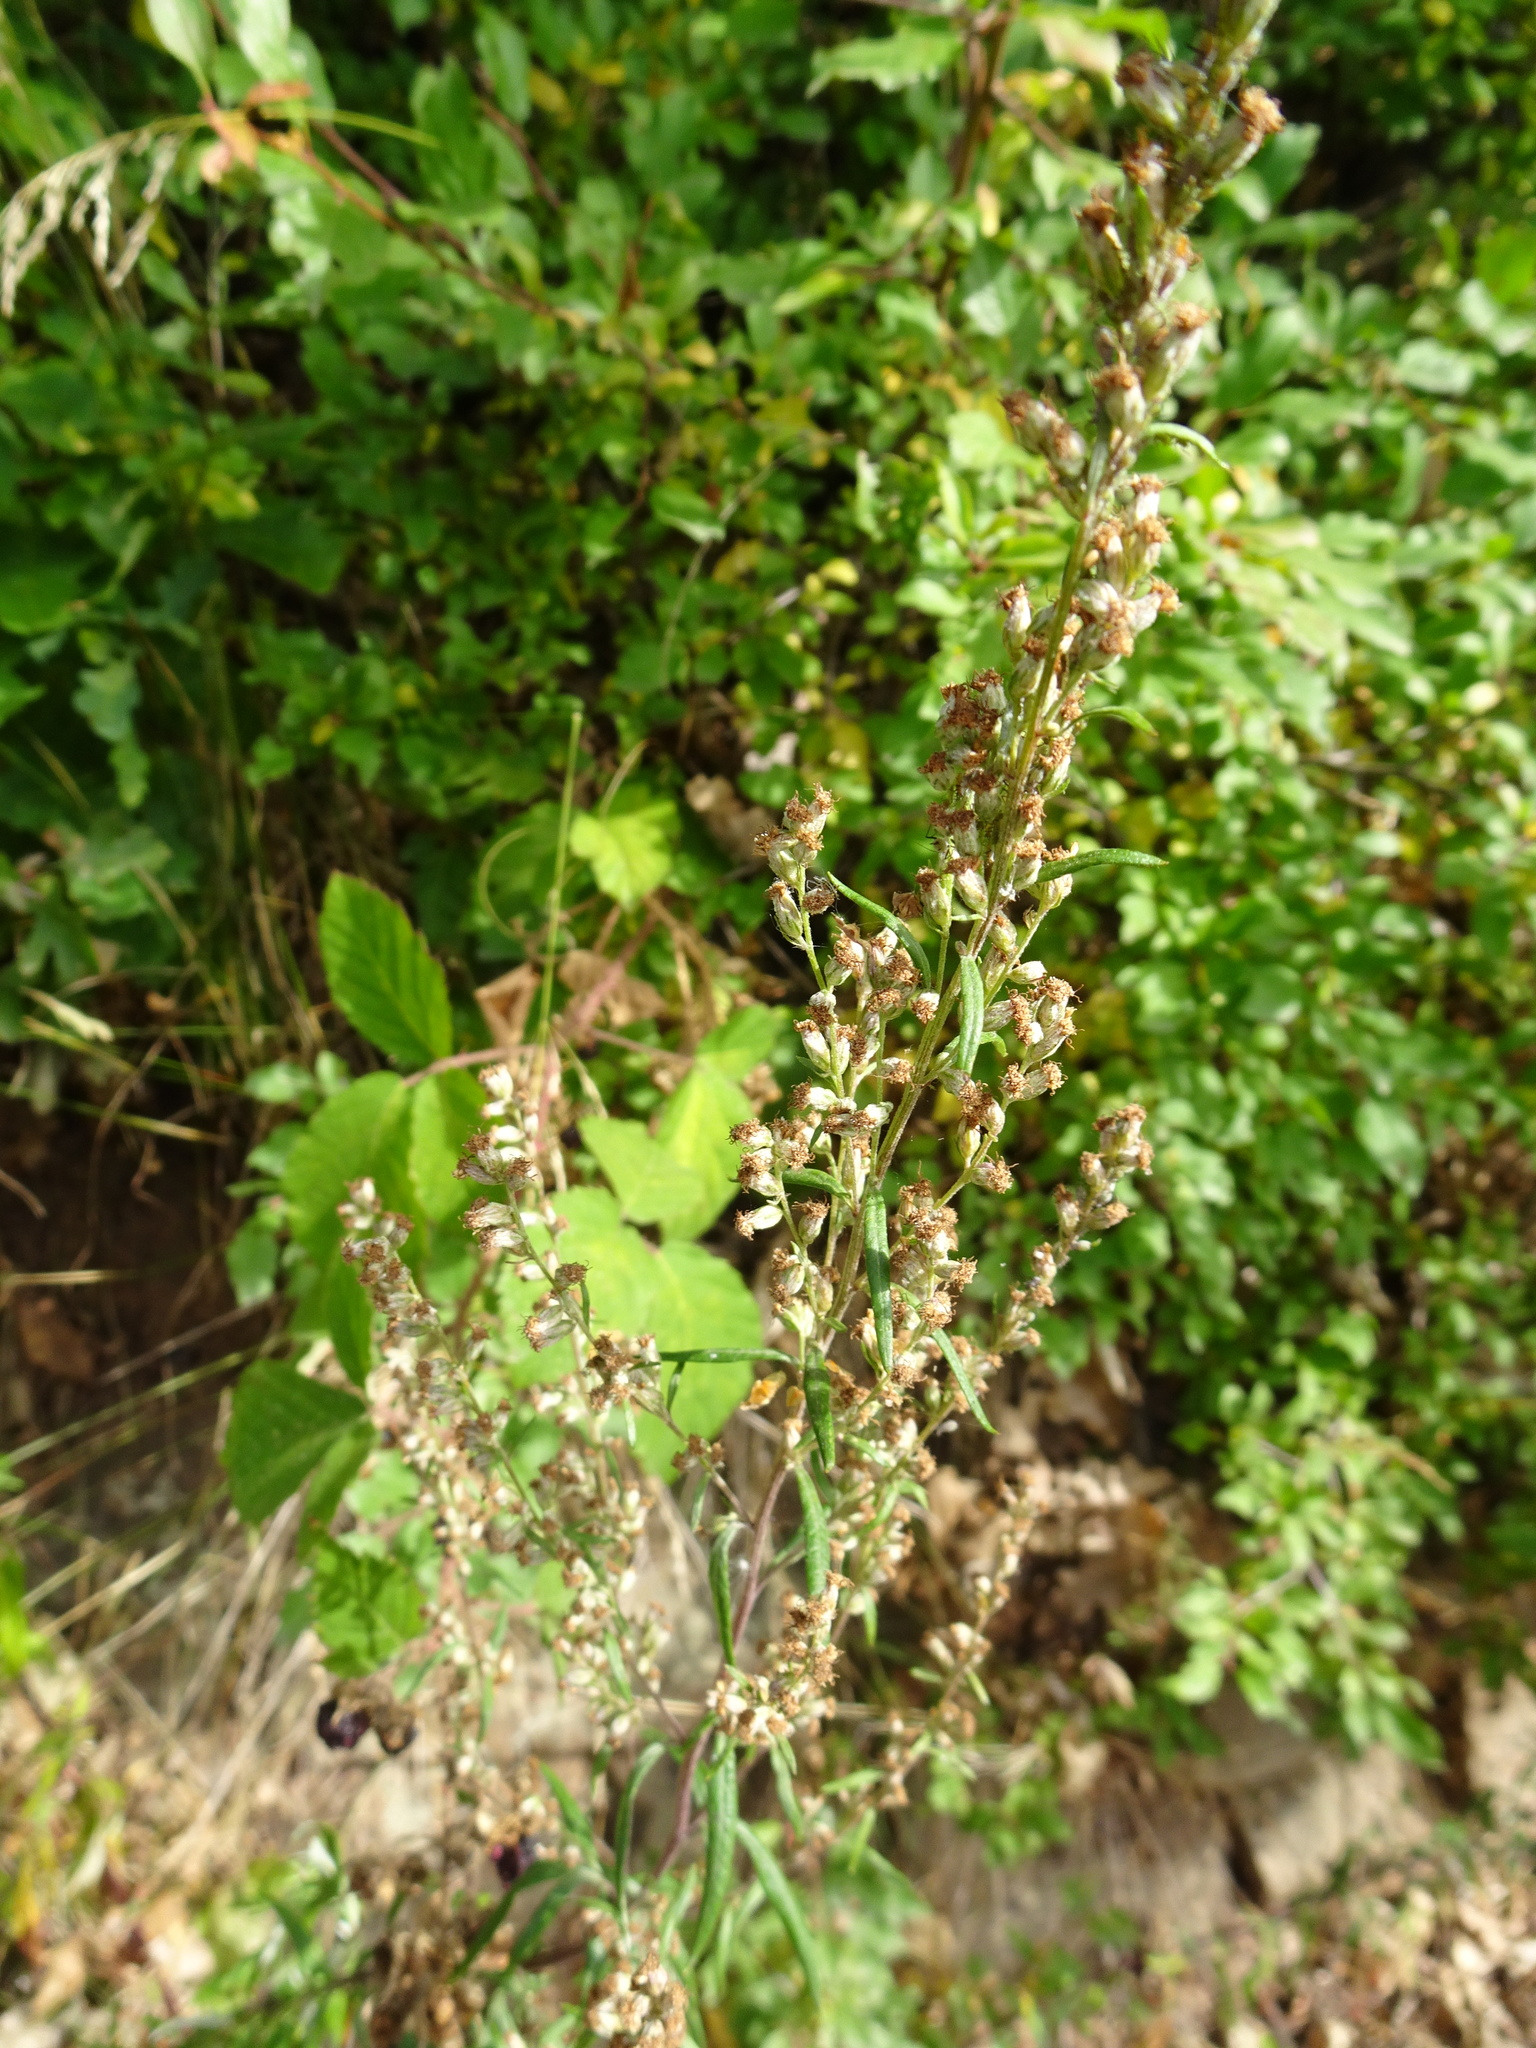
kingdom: Plantae
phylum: Tracheophyta
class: Magnoliopsida
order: Asterales
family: Asteraceae
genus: Artemisia
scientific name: Artemisia vulgaris
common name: Mugwort
